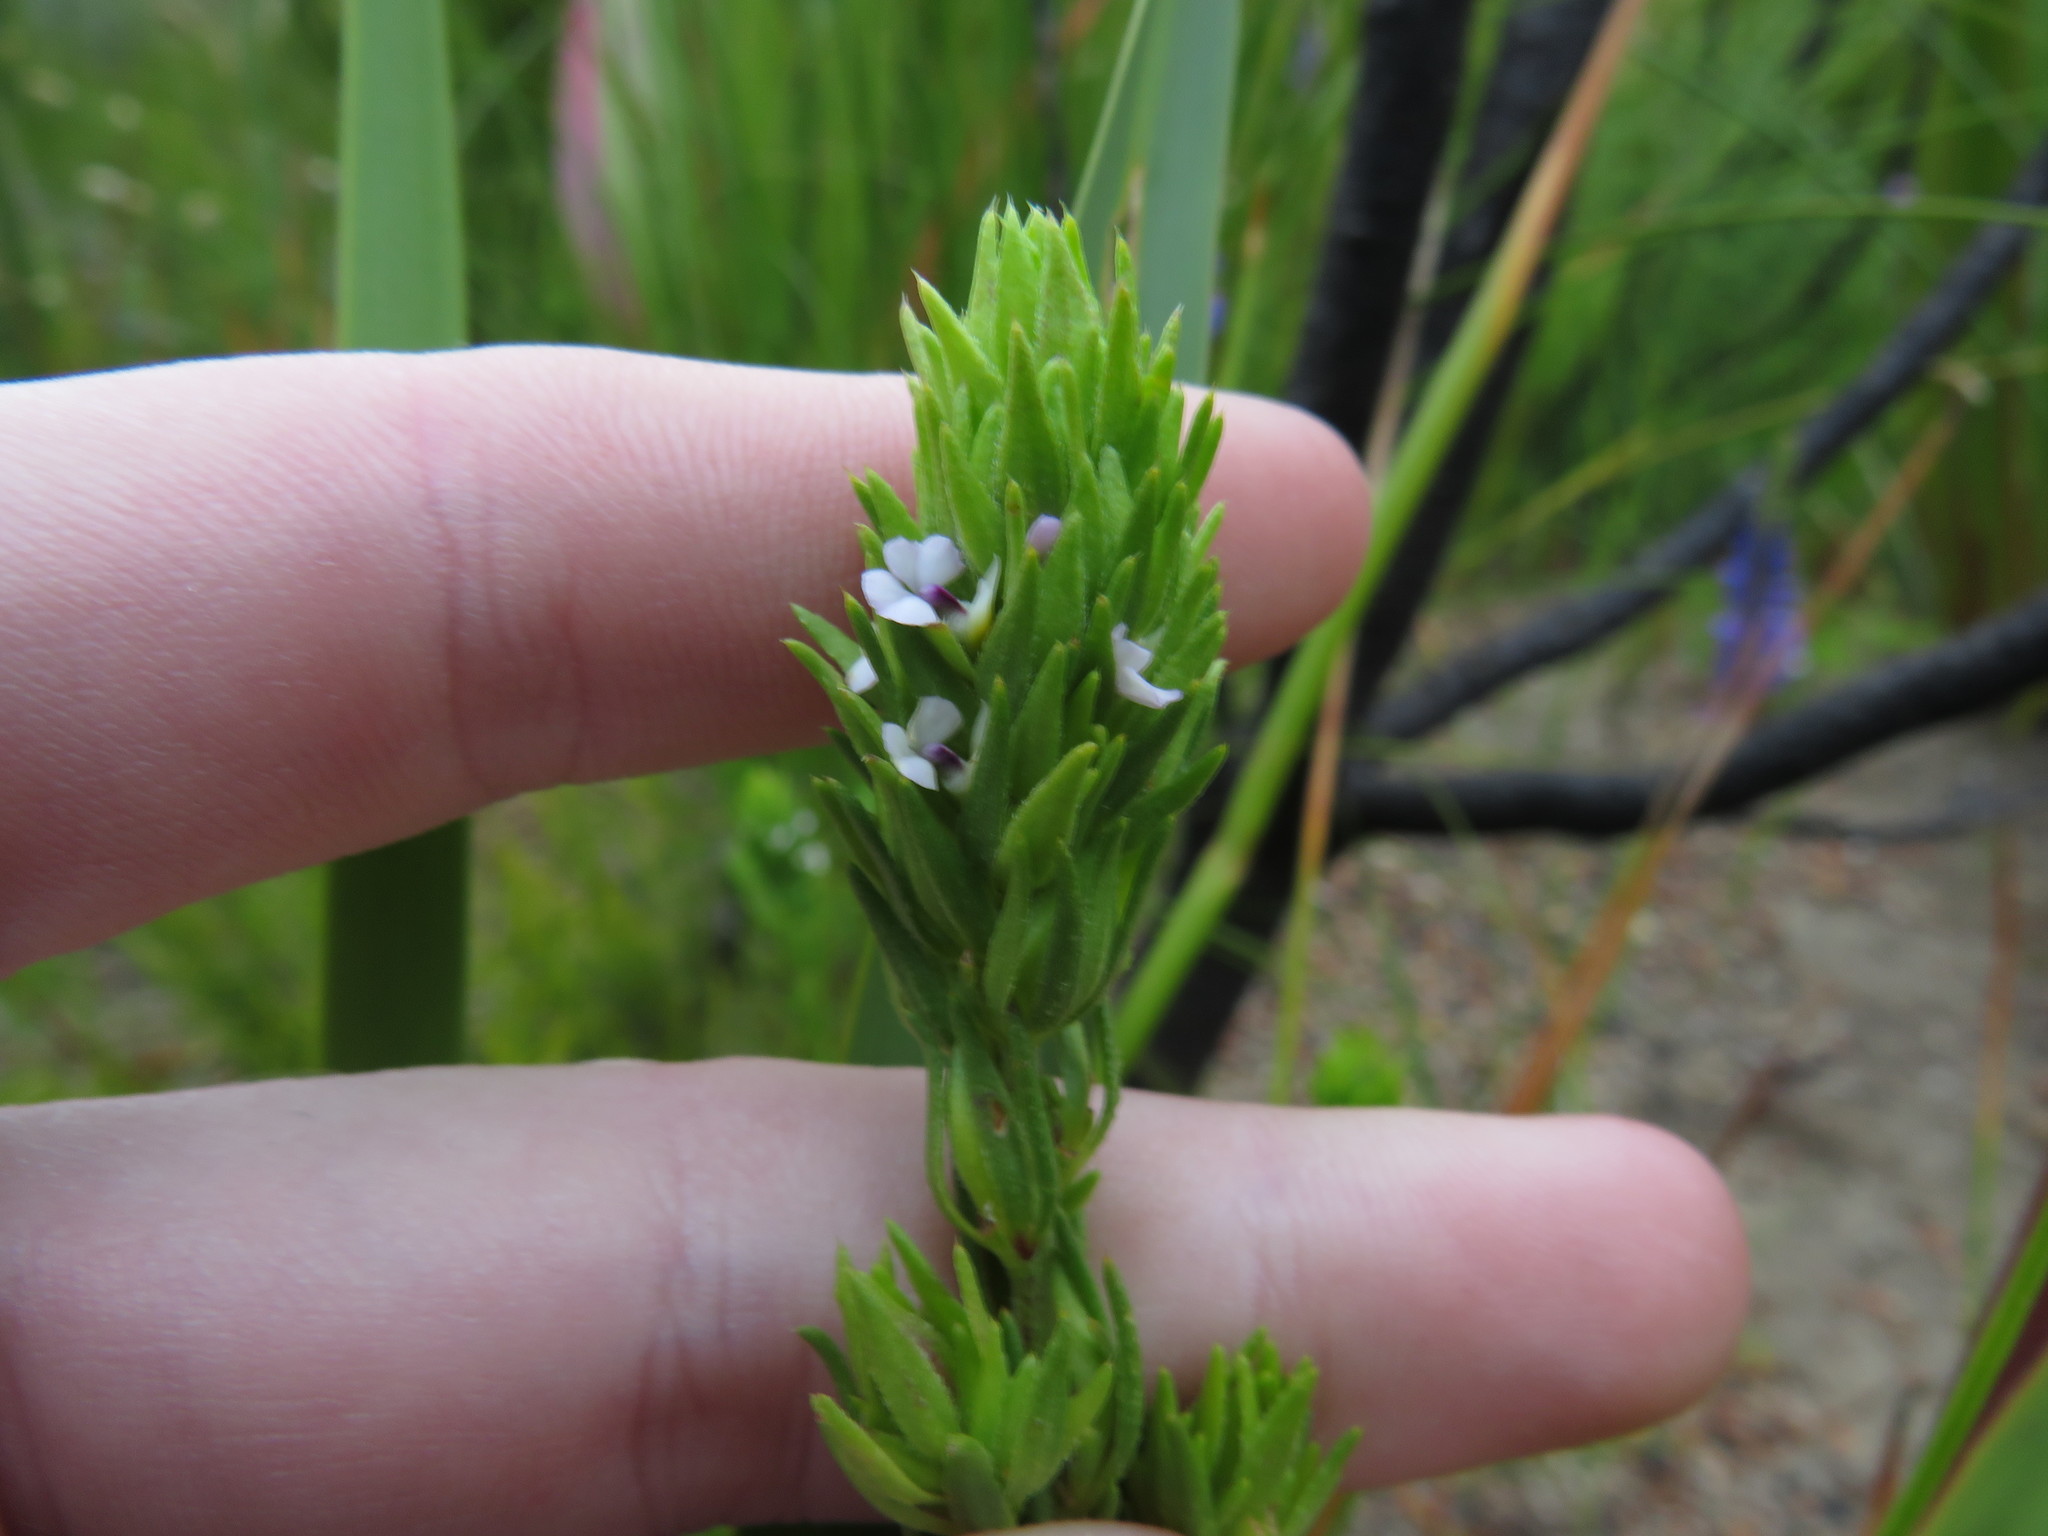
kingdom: Plantae
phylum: Tracheophyta
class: Magnoliopsida
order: Fabales
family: Polygalaceae
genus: Muraltia
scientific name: Muraltia alba
